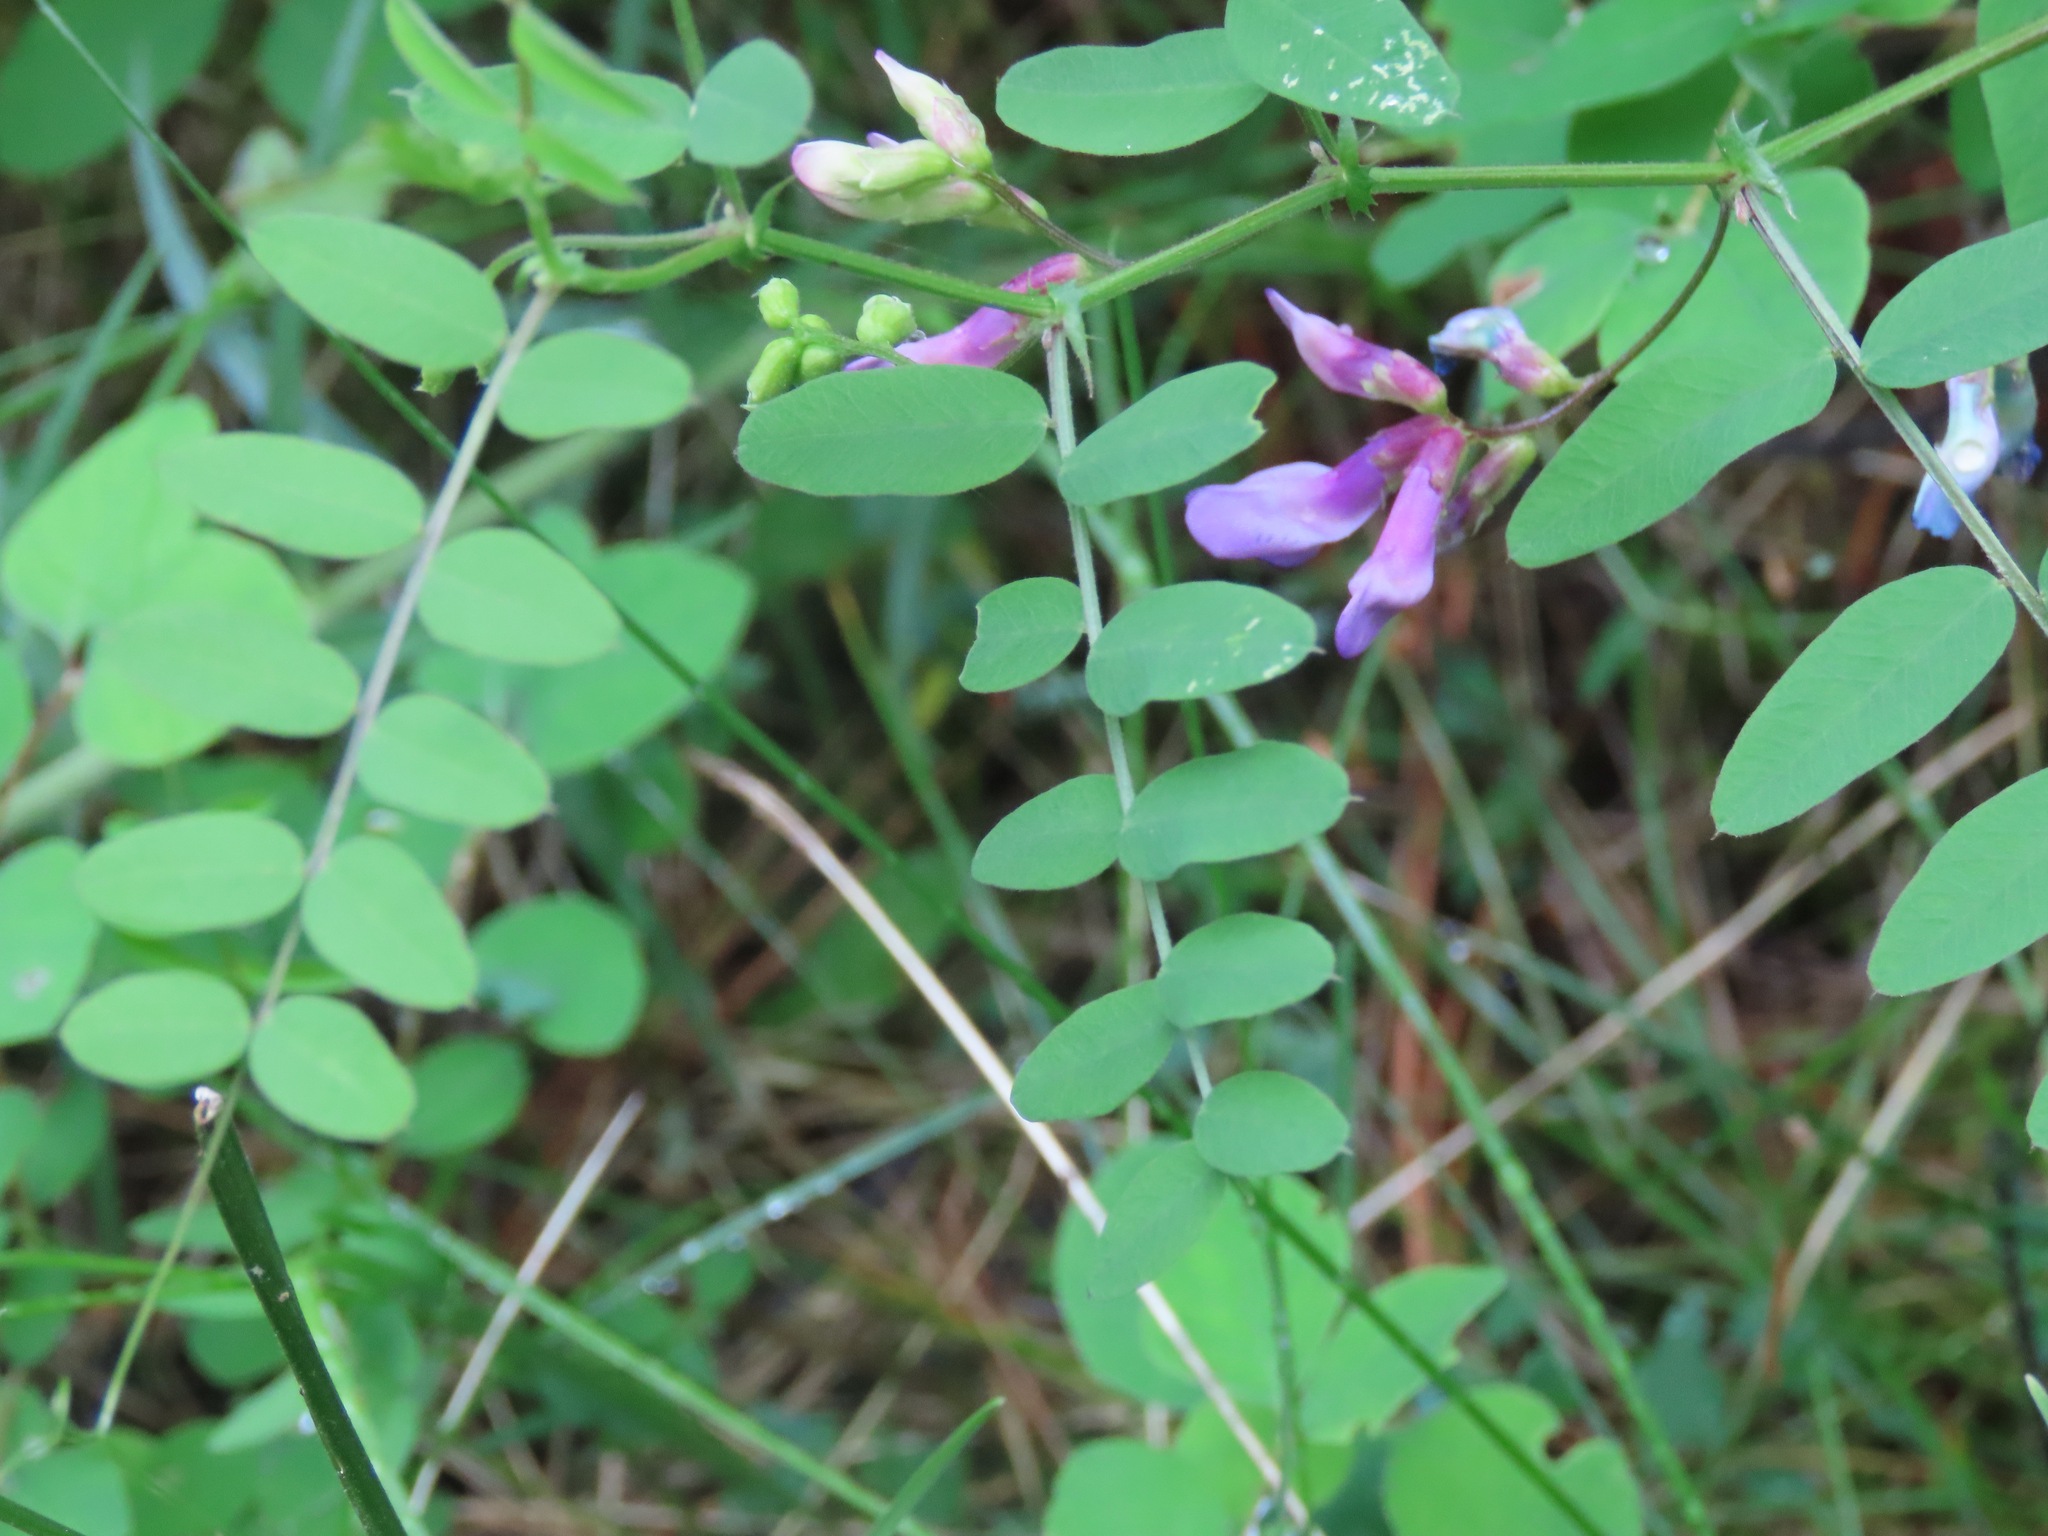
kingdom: Plantae
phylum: Tracheophyta
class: Magnoliopsida
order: Fabales
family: Fabaceae
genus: Vicia
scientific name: Vicia americana
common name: American vetch
